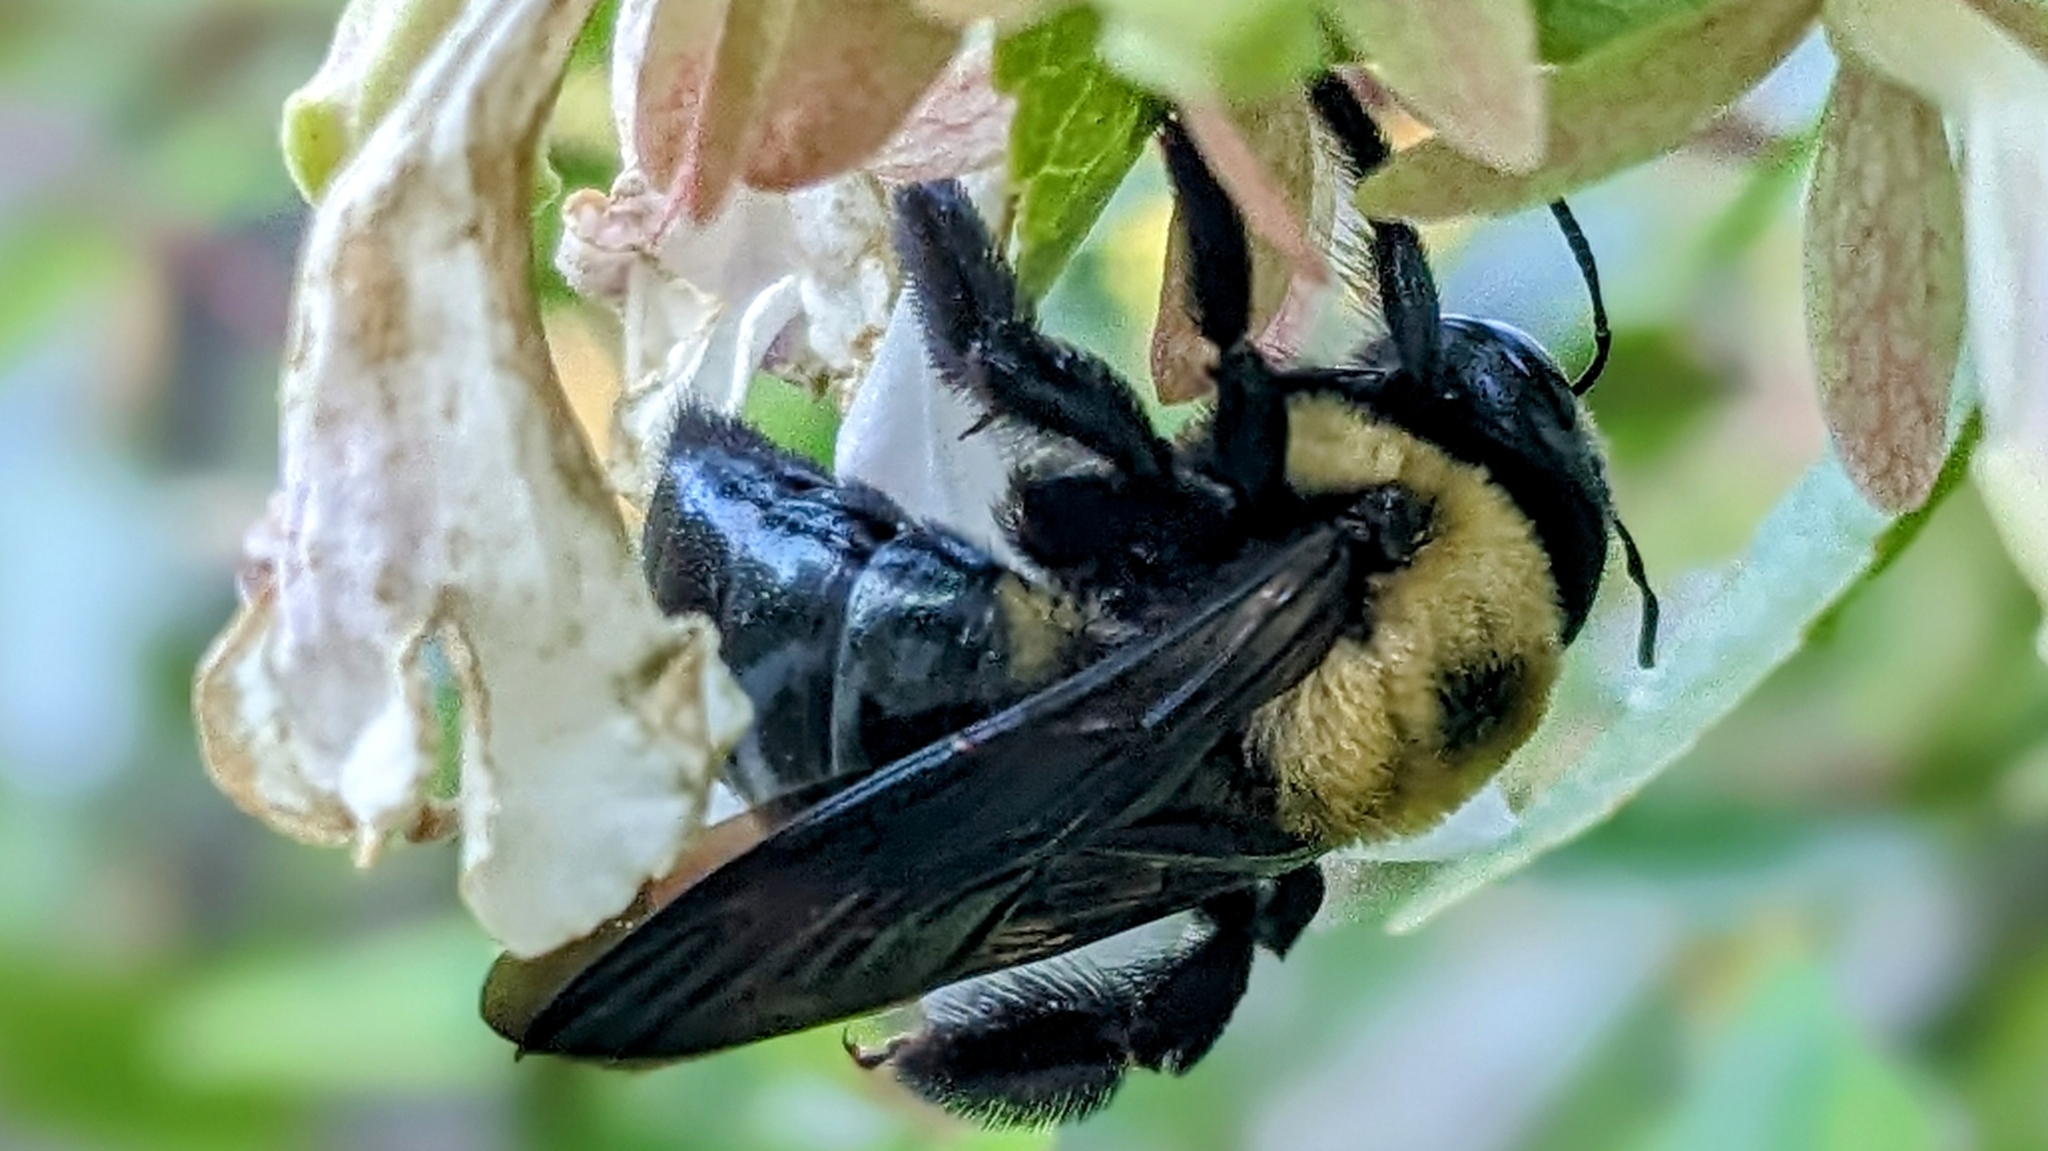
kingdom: Animalia
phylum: Arthropoda
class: Insecta
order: Hymenoptera
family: Apidae
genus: Xylocopa
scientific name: Xylocopa virginica
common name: Carpenter bee
